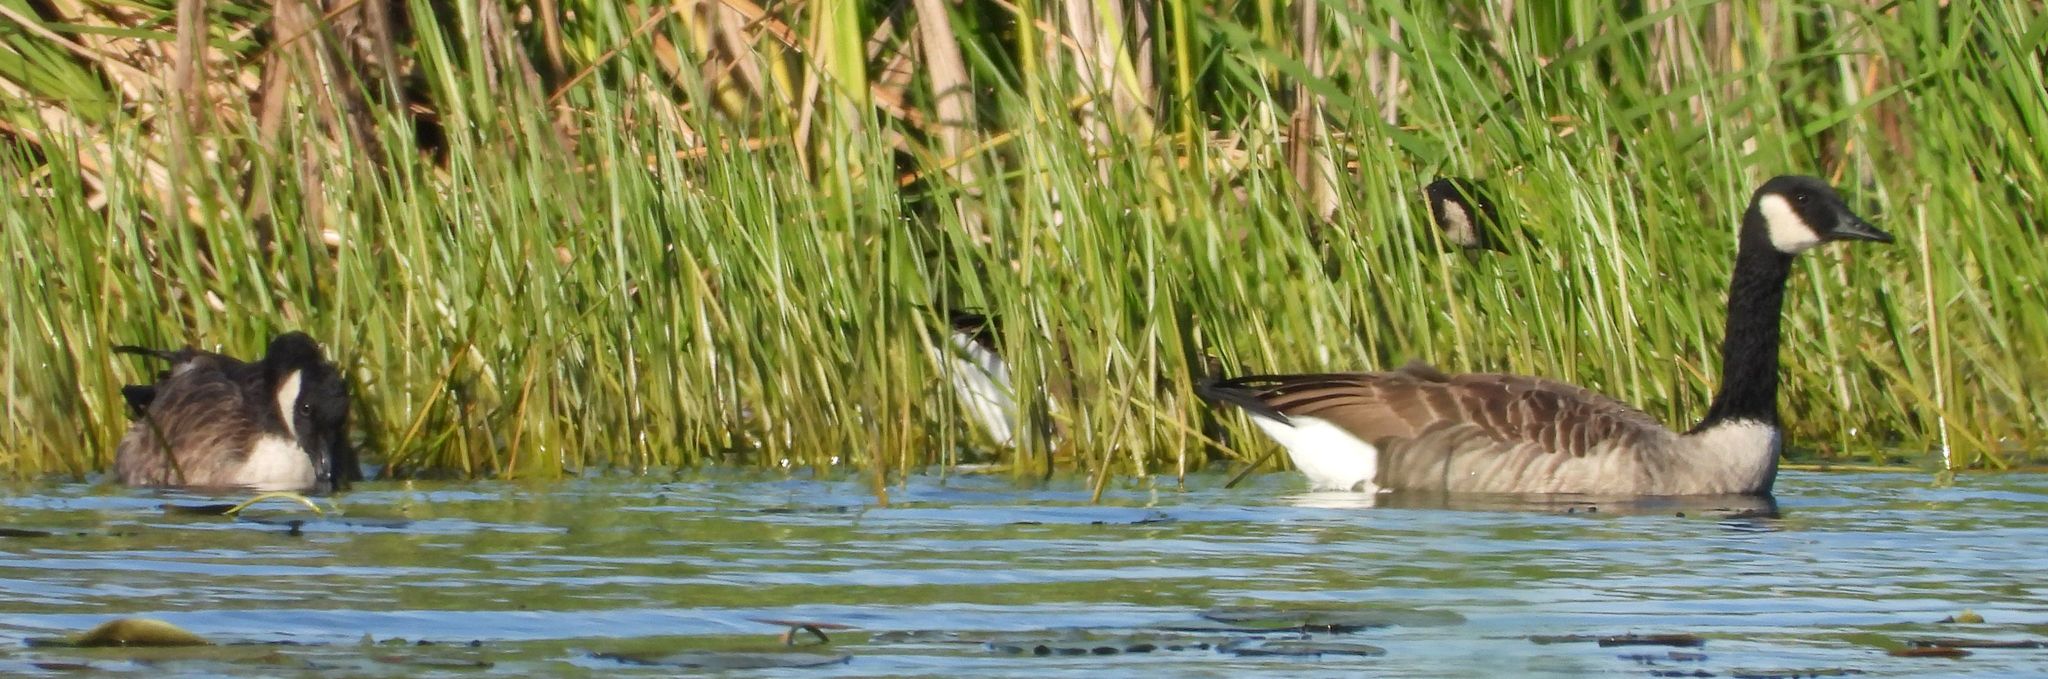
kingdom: Animalia
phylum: Chordata
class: Aves
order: Anseriformes
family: Anatidae
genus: Branta
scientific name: Branta canadensis
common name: Canada goose
